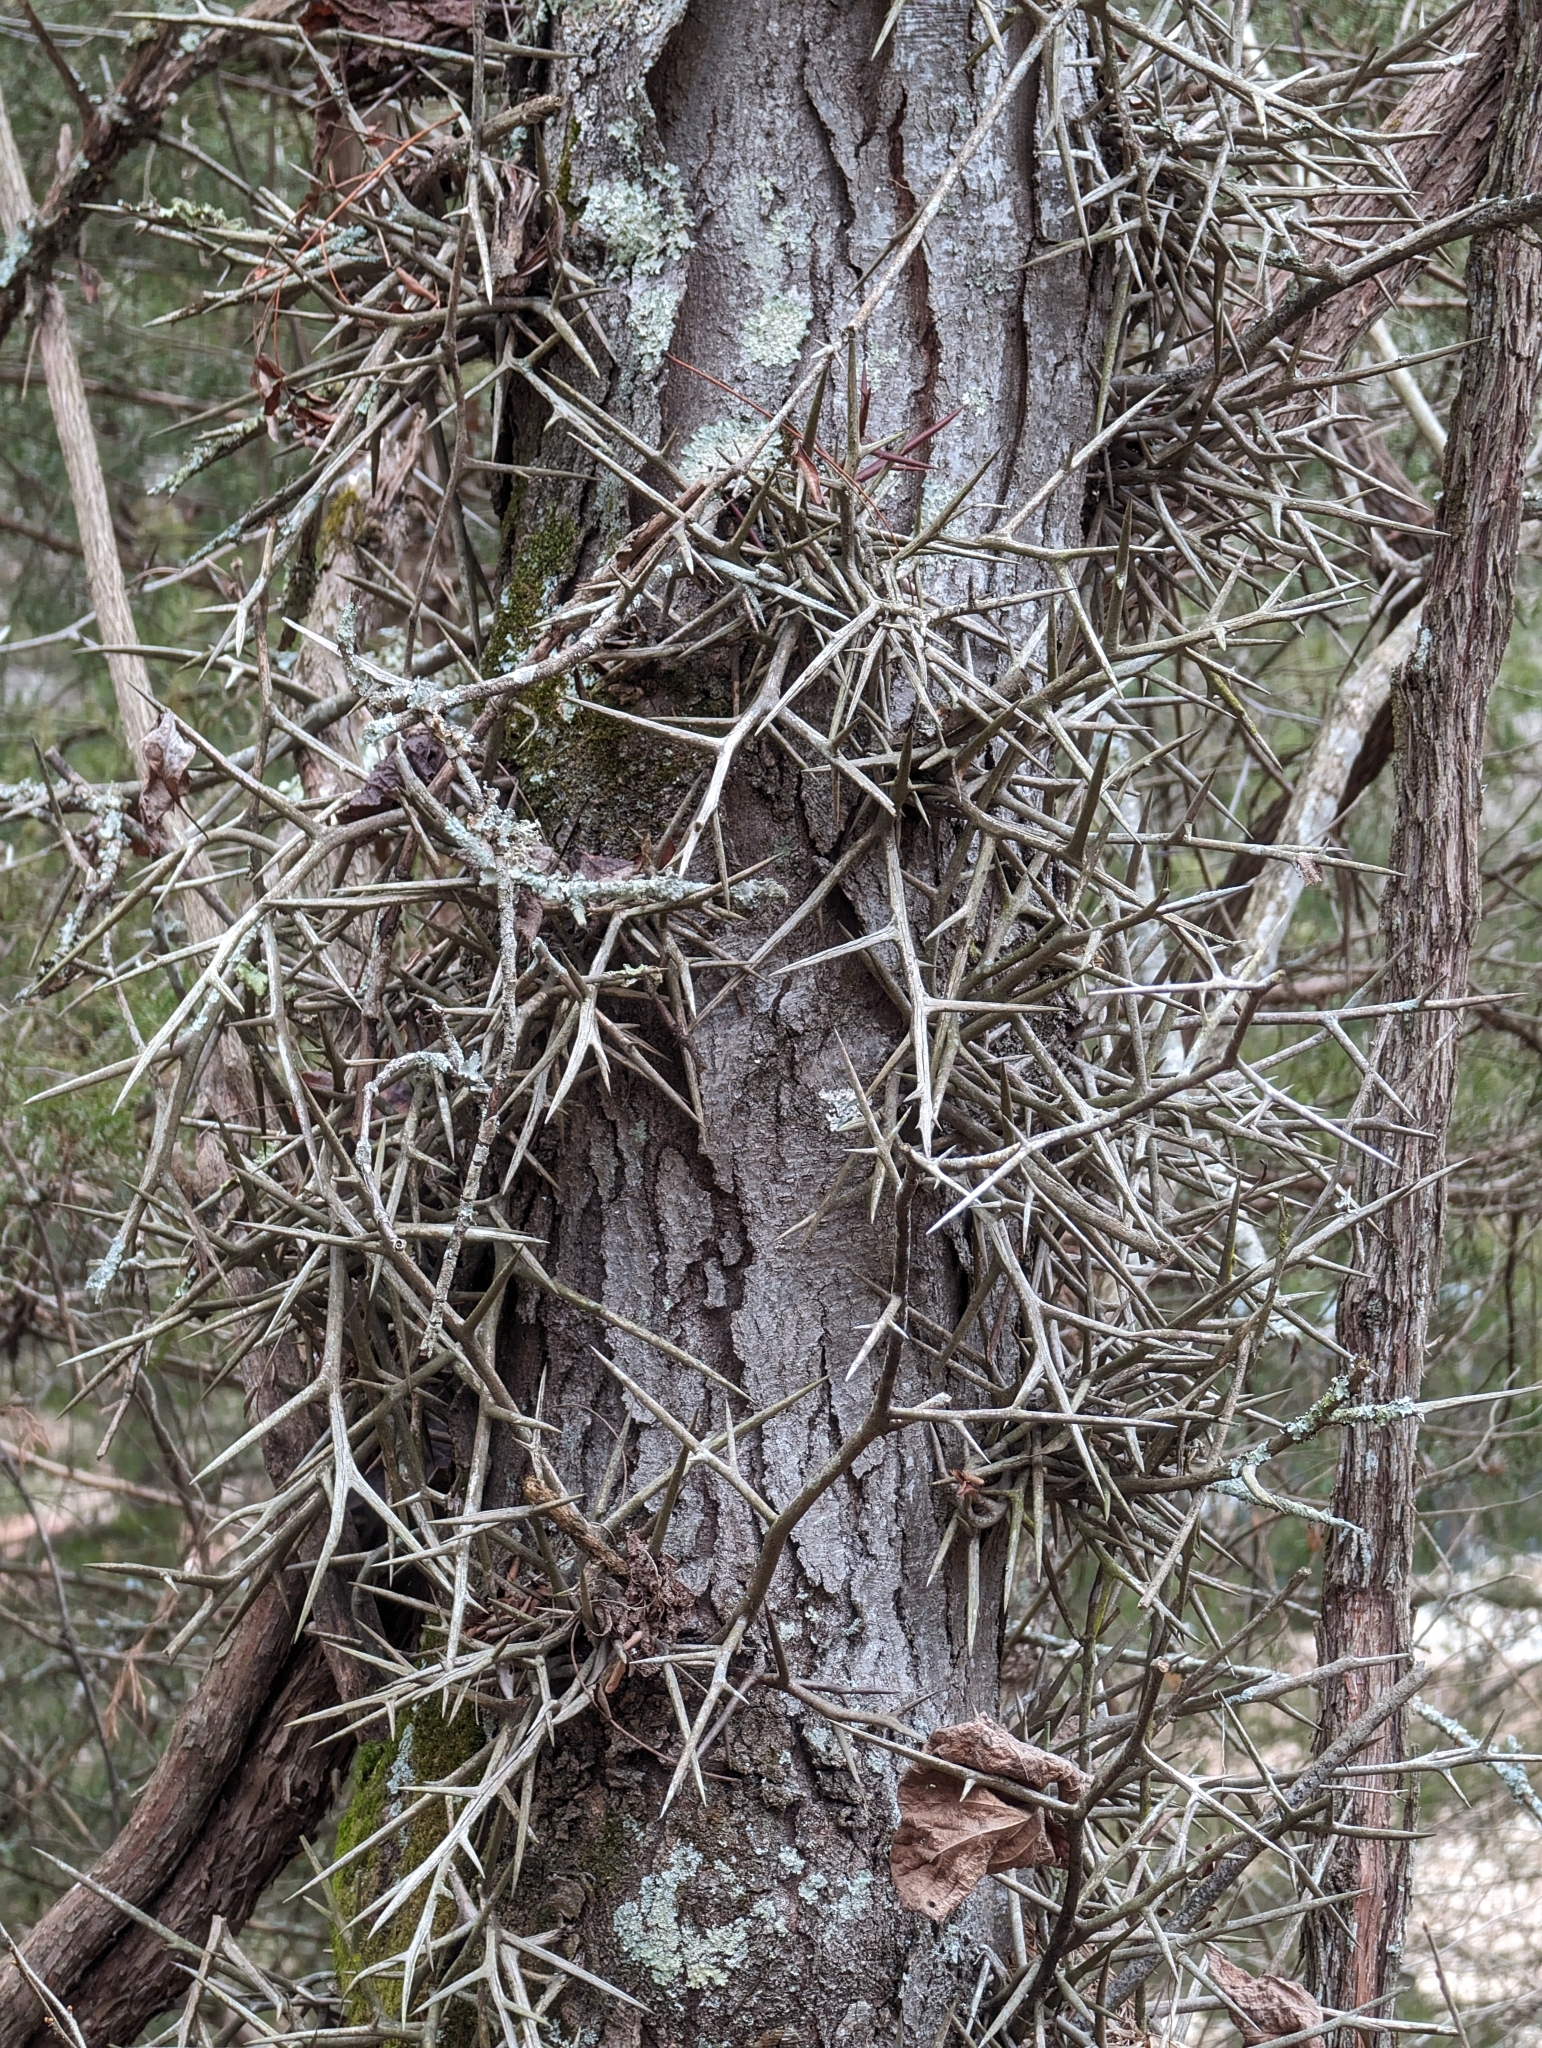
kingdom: Plantae
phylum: Tracheophyta
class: Magnoliopsida
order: Fabales
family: Fabaceae
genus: Gleditsia
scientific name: Gleditsia triacanthos
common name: Common honeylocust
